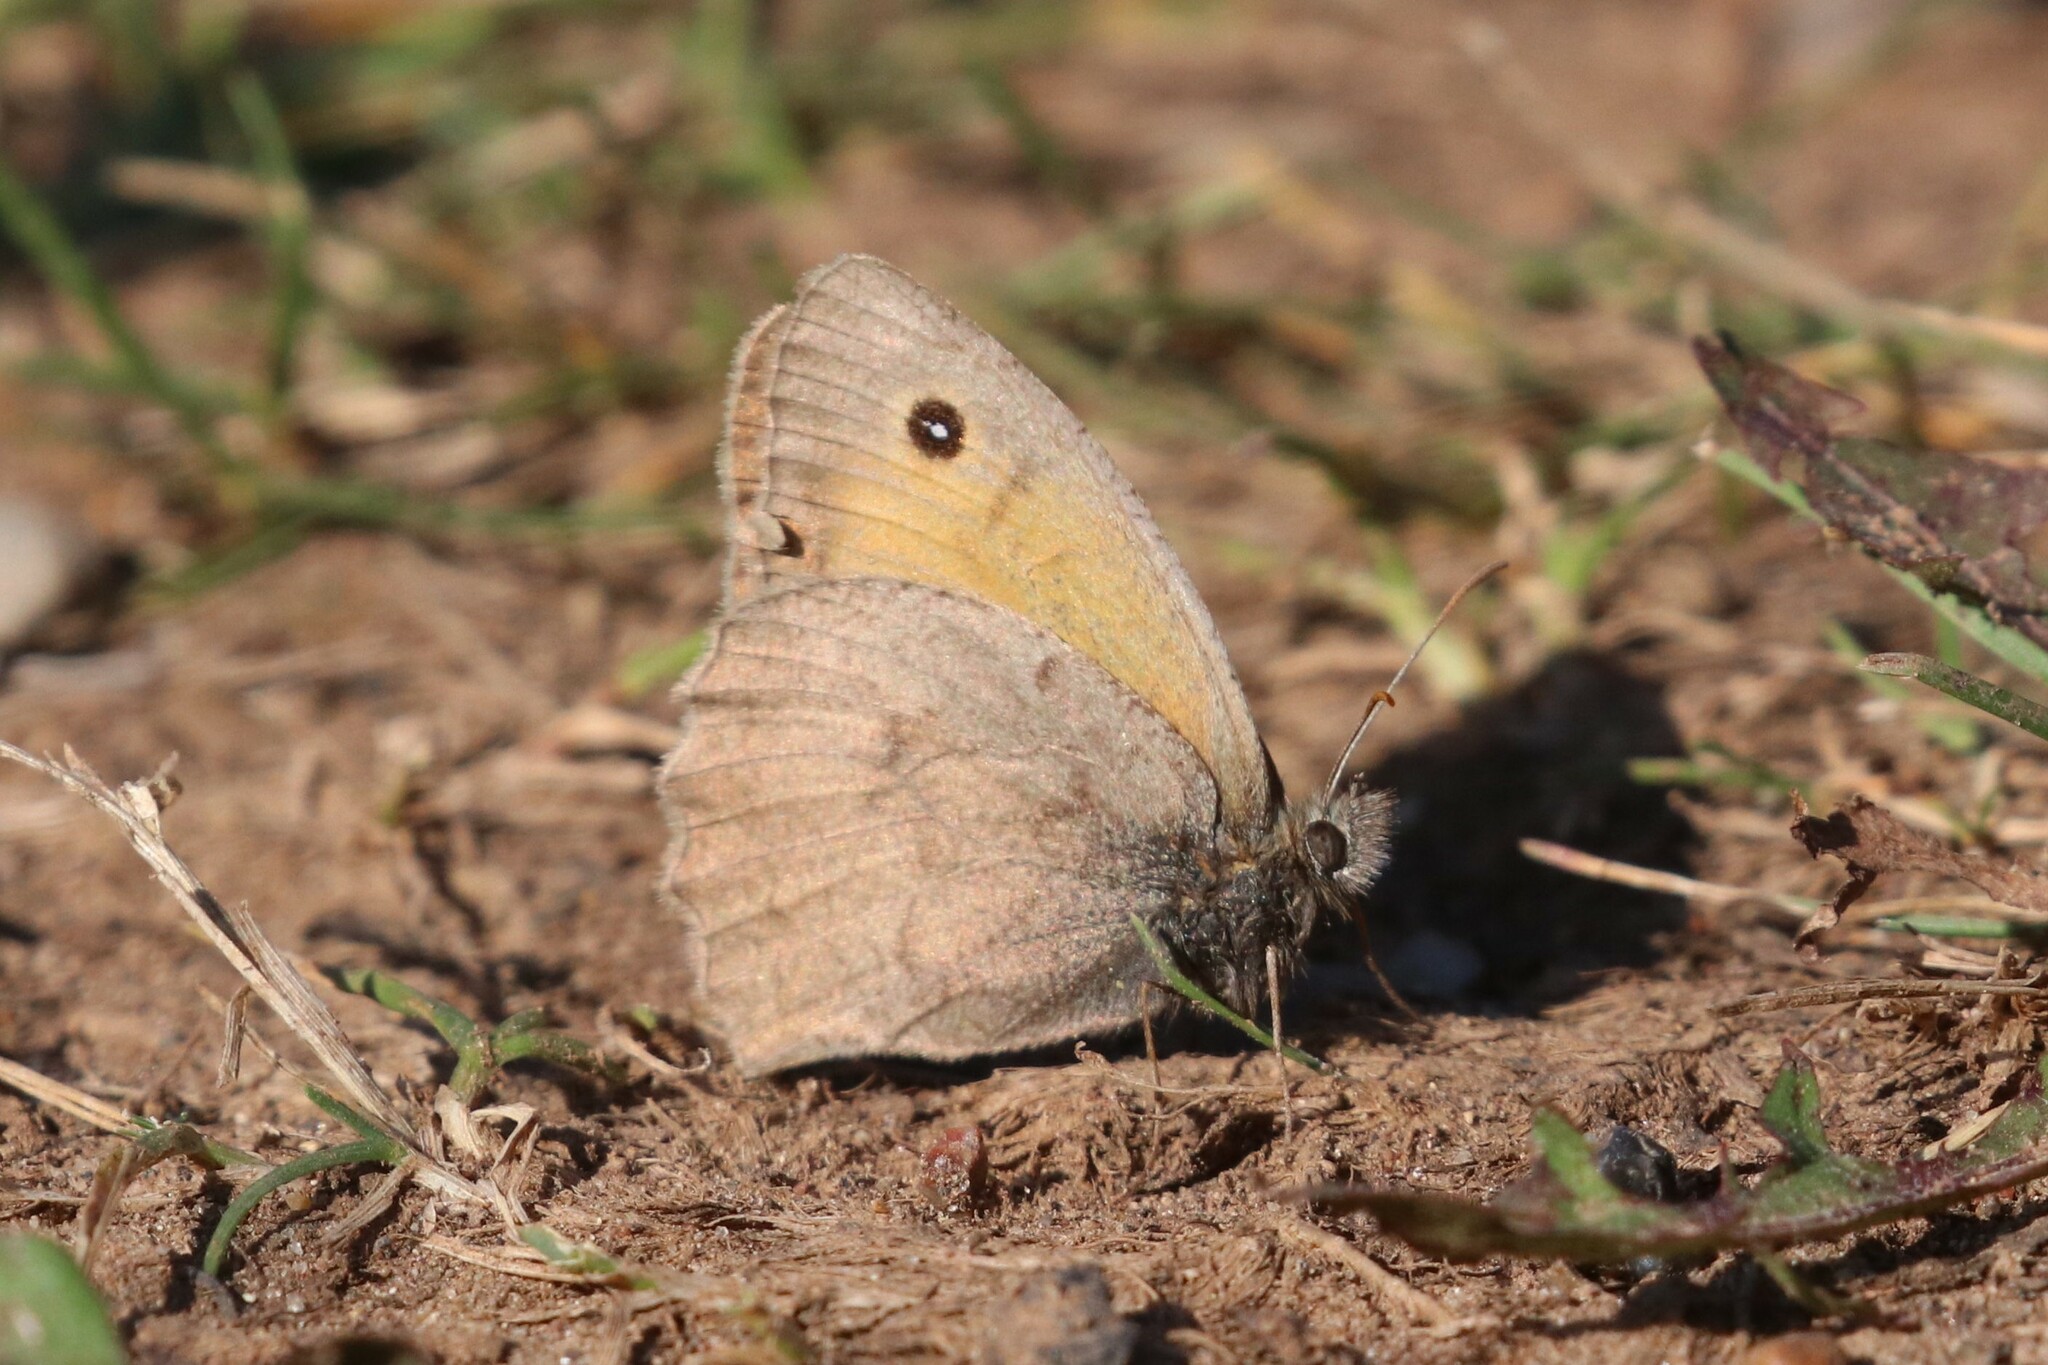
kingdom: Animalia
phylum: Arthropoda
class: Insecta
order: Lepidoptera
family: Nymphalidae
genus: Hyponephele
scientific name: Hyponephele lycaon
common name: Dusky meadow brown
